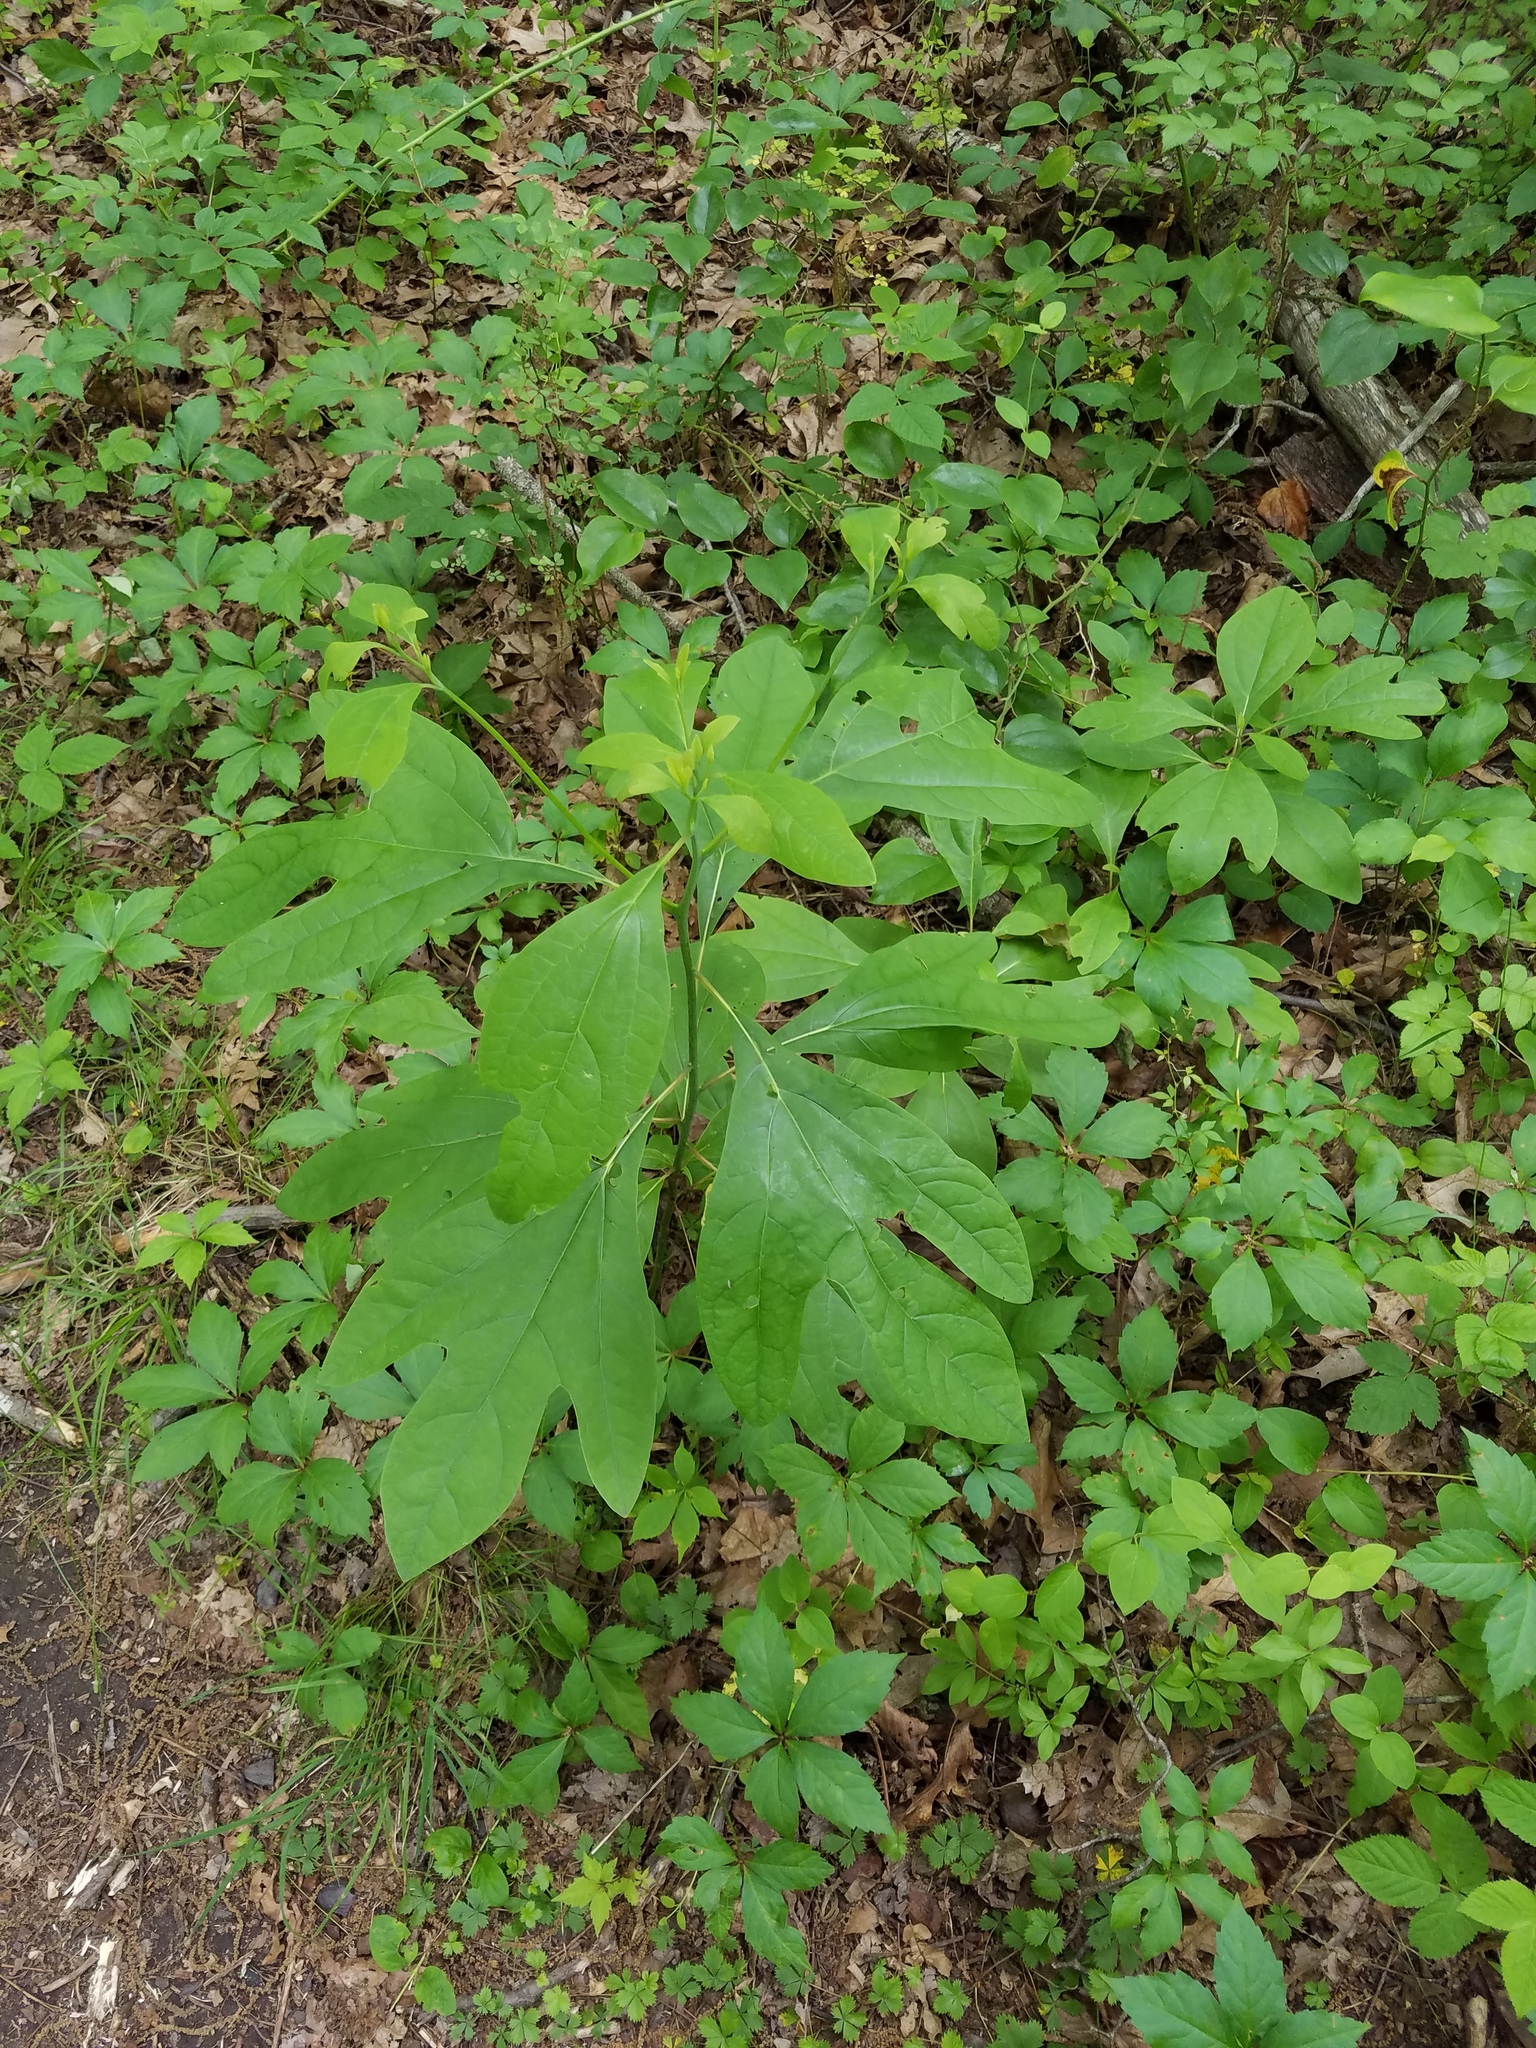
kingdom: Plantae
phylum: Tracheophyta
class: Magnoliopsida
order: Laurales
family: Lauraceae
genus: Sassafras
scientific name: Sassafras albidum
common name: Sassafras
